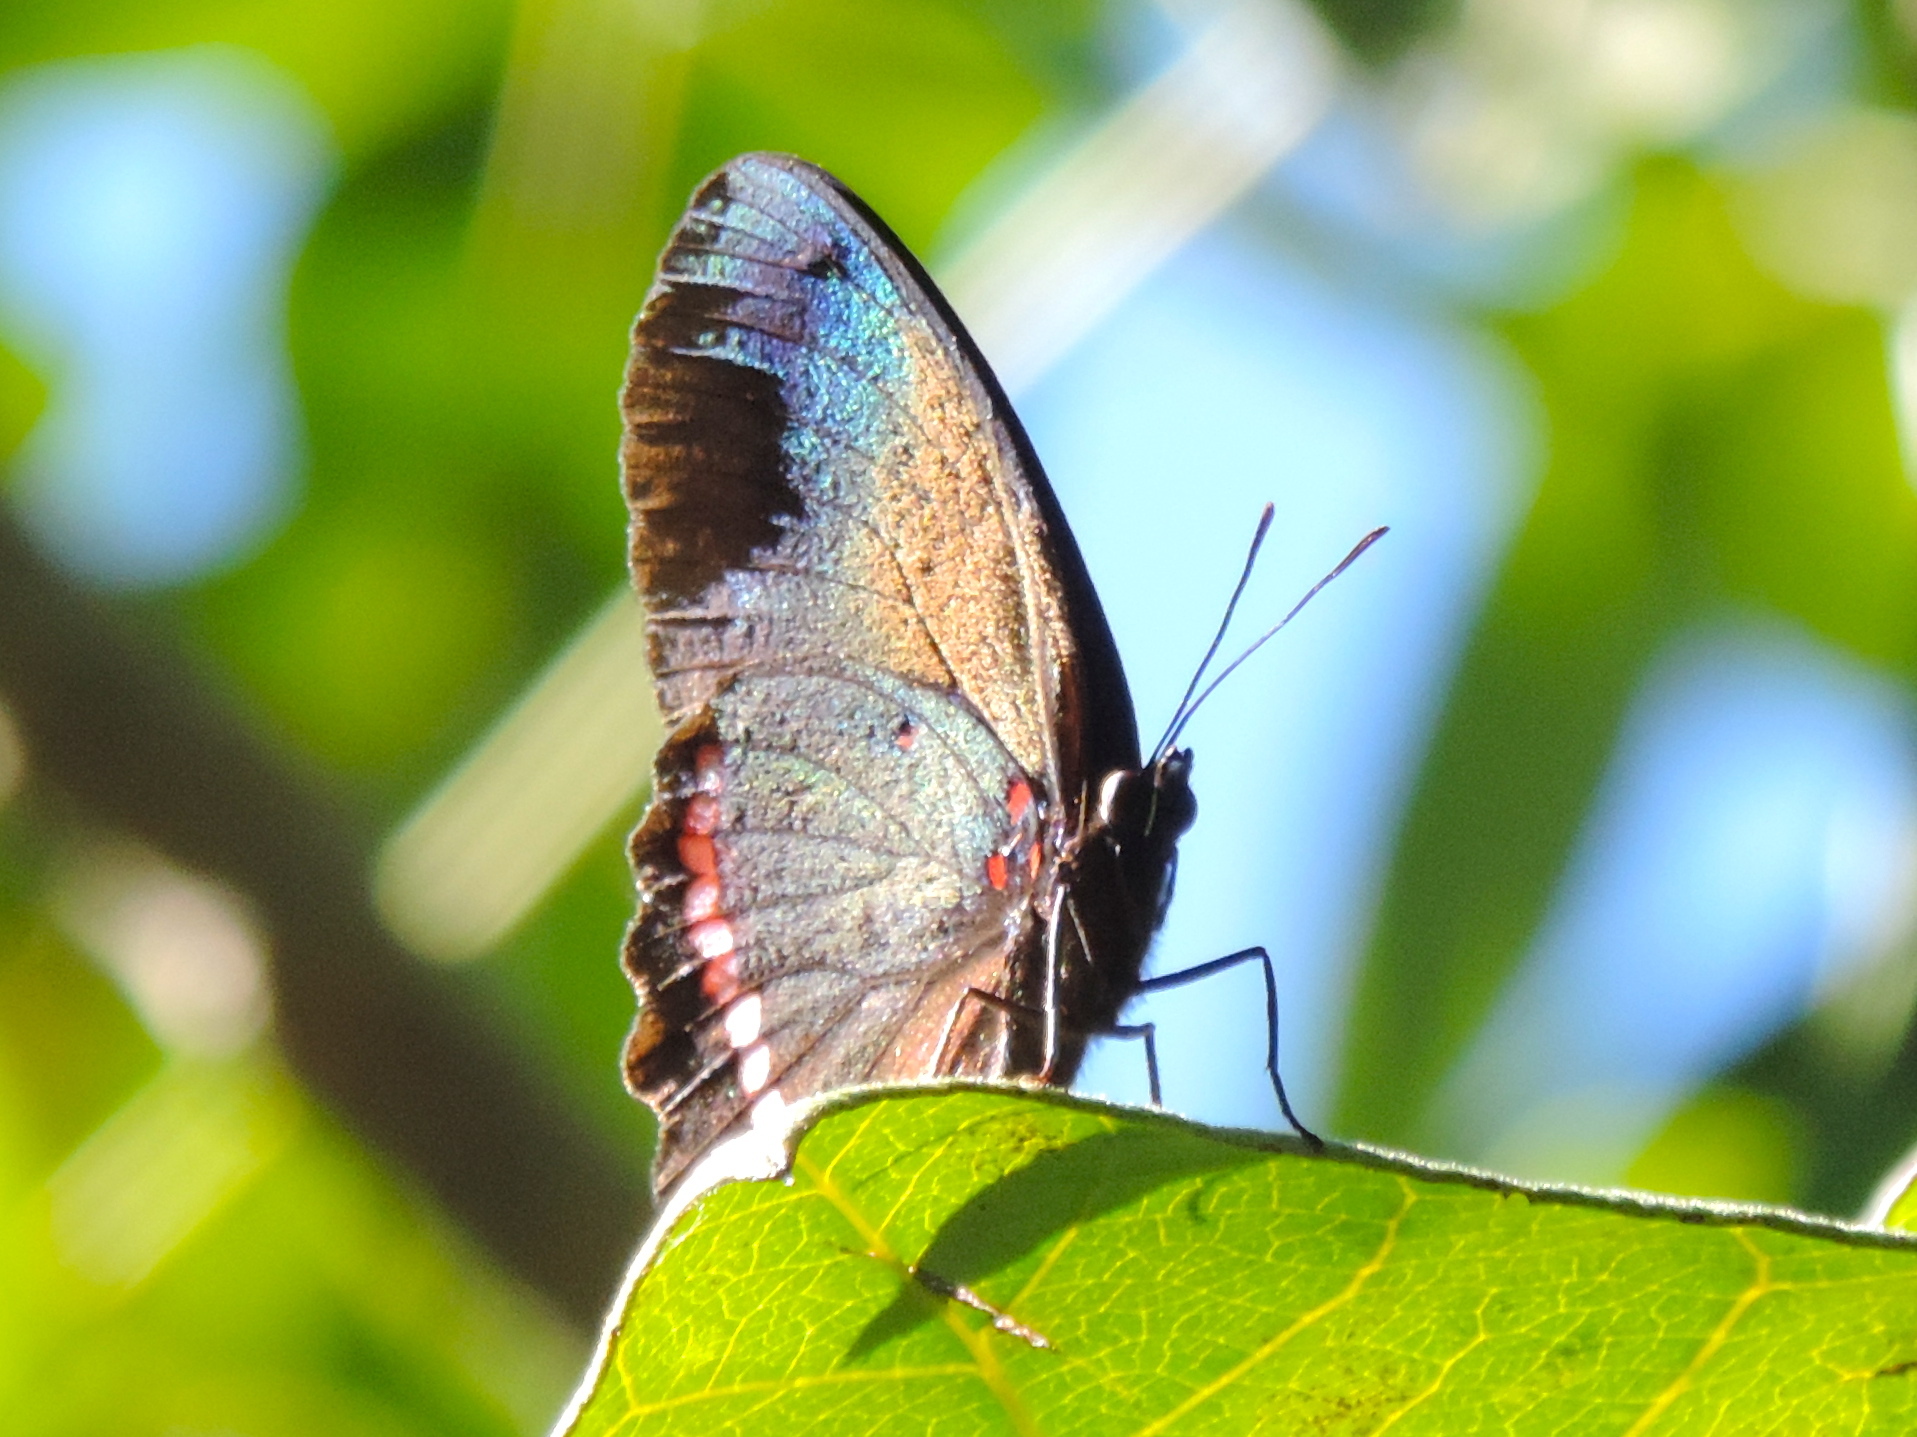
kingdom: Animalia
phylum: Arthropoda
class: Insecta
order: Lepidoptera
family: Nymphalidae
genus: Biblis
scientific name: Biblis aganisa
